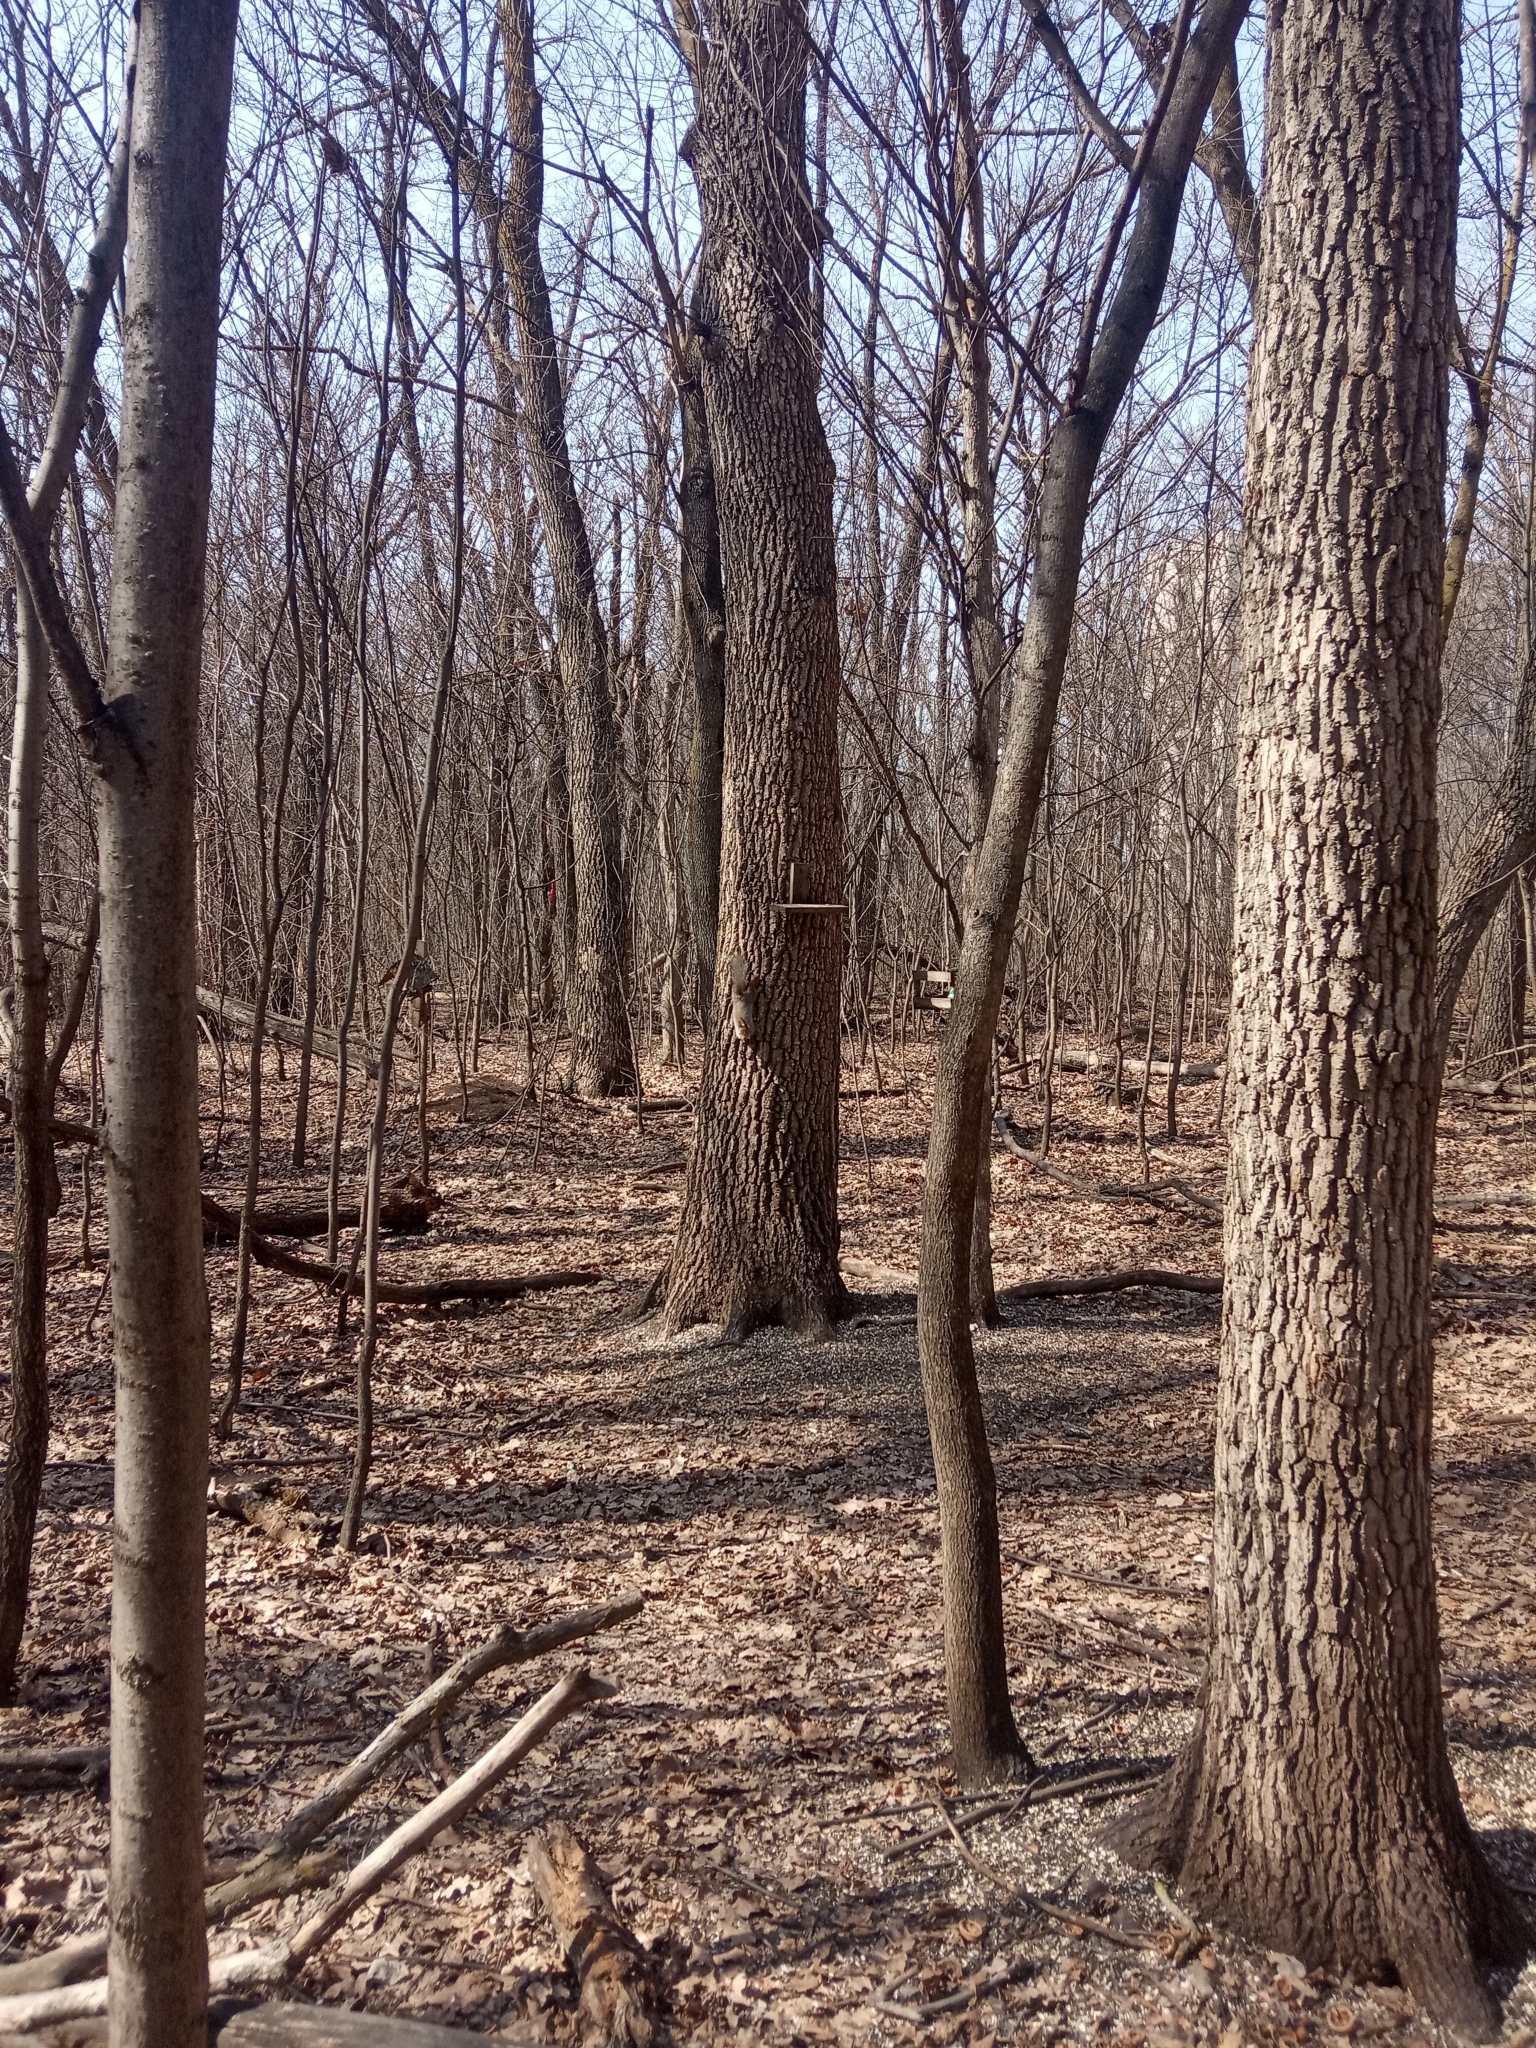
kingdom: Animalia
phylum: Chordata
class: Mammalia
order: Rodentia
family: Sciuridae
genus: Sciurus
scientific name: Sciurus vulgaris
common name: Eurasian red squirrel
